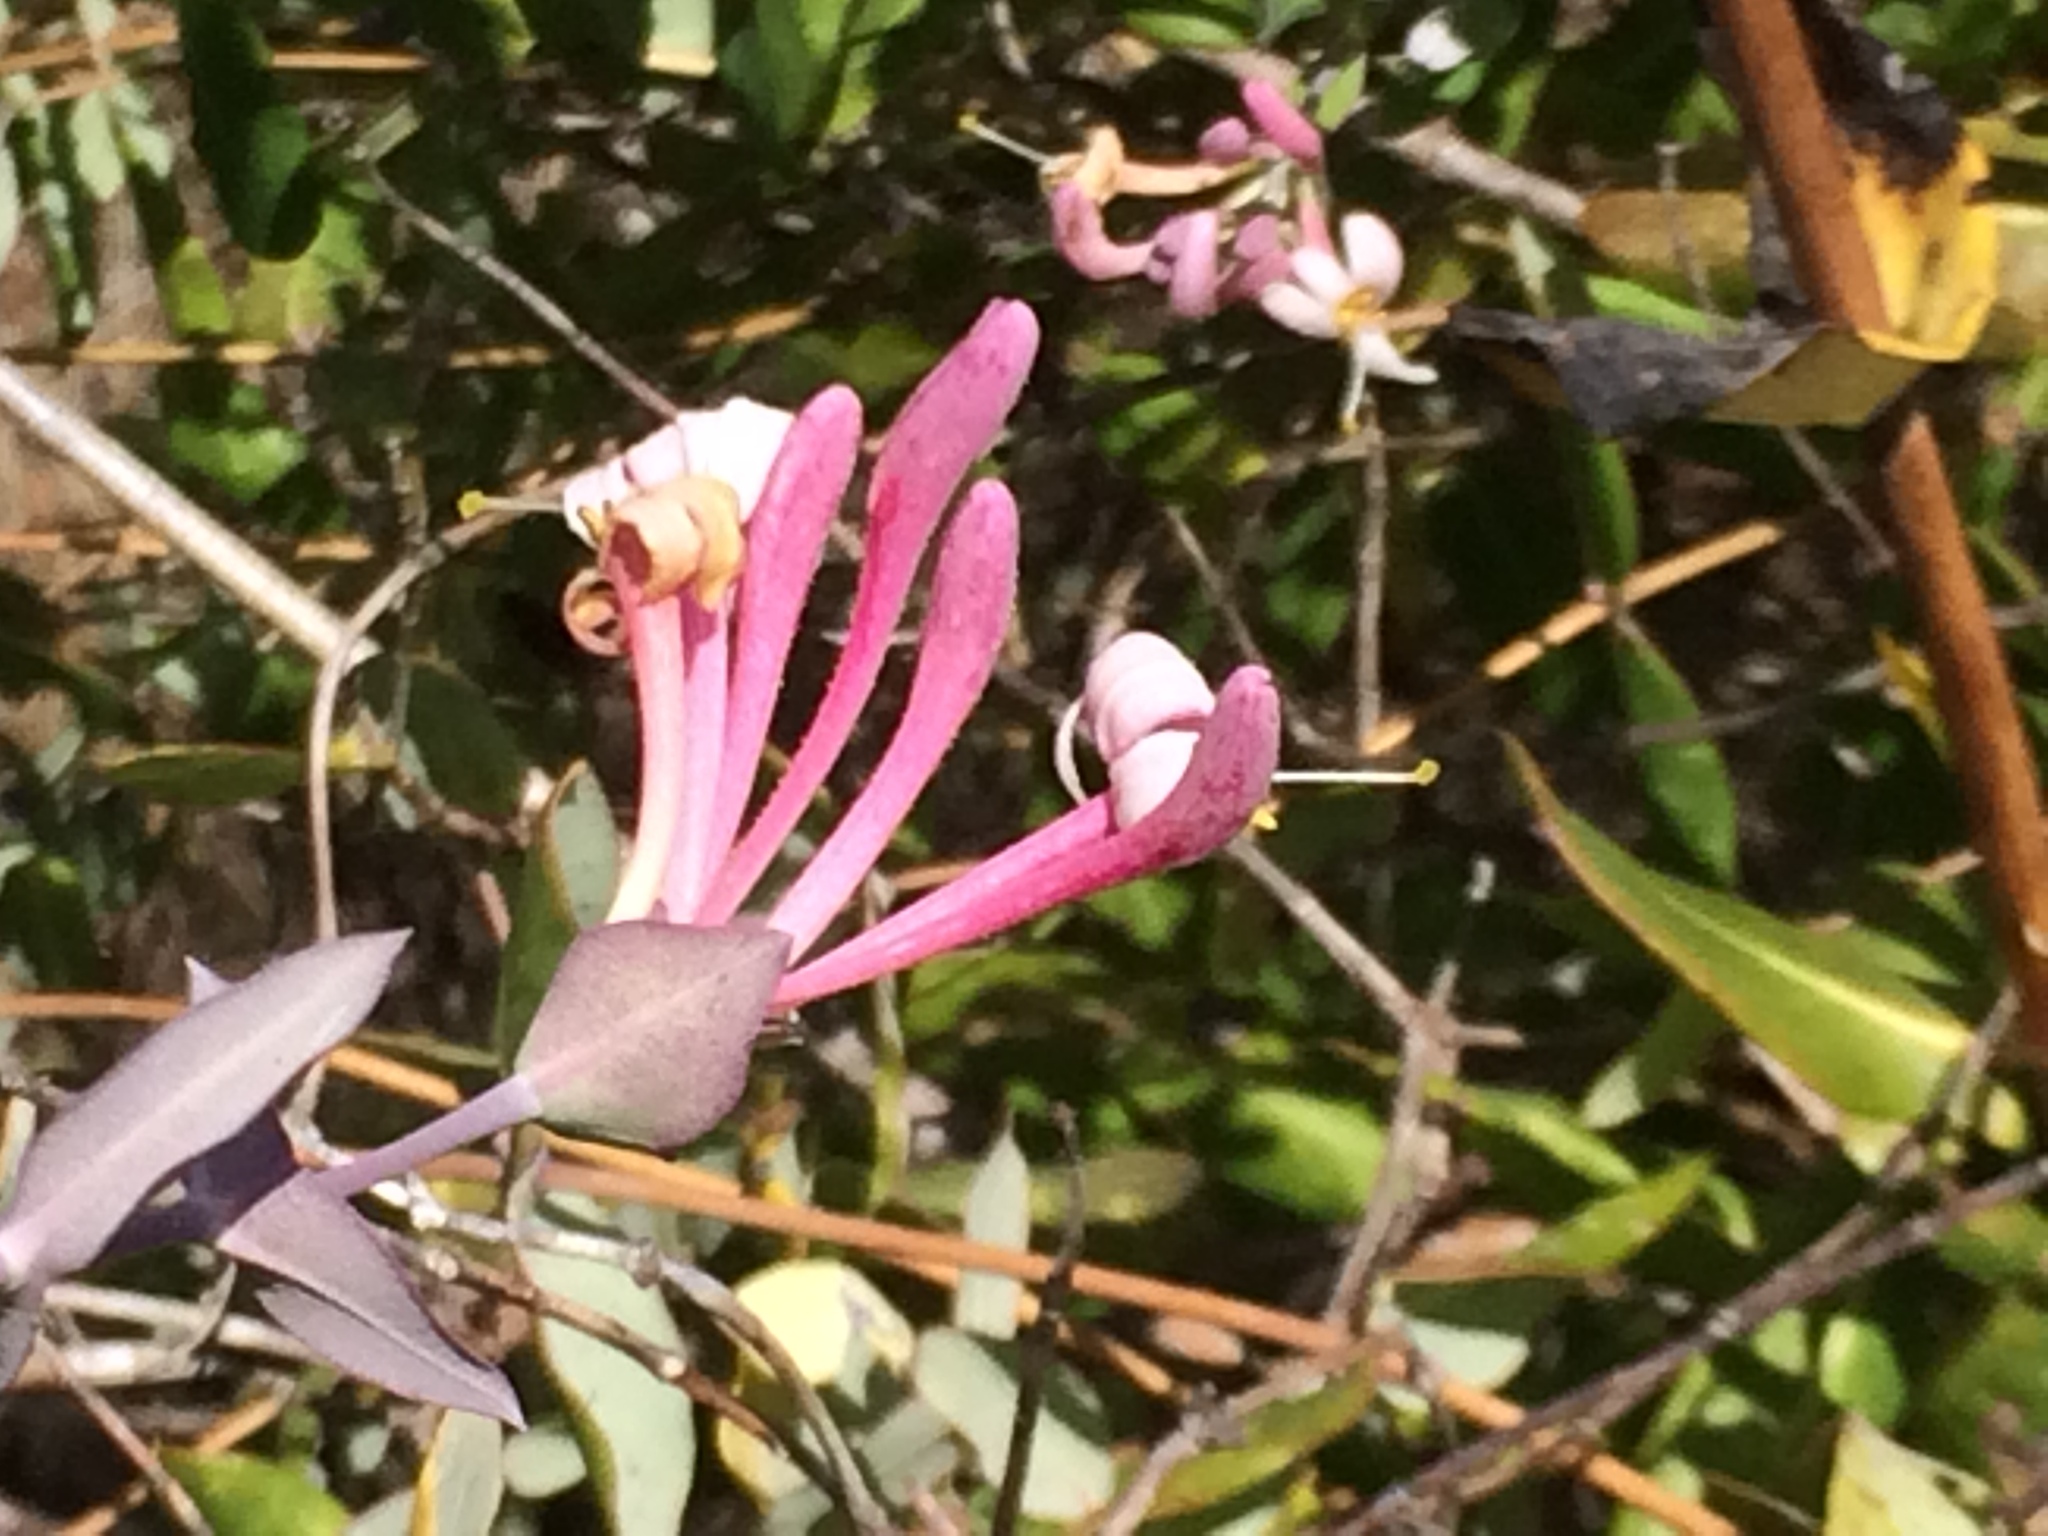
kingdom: Plantae
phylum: Tracheophyta
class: Magnoliopsida
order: Dipsacales
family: Caprifoliaceae
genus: Lonicera
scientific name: Lonicera implexa
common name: Minorca honeysuckle
